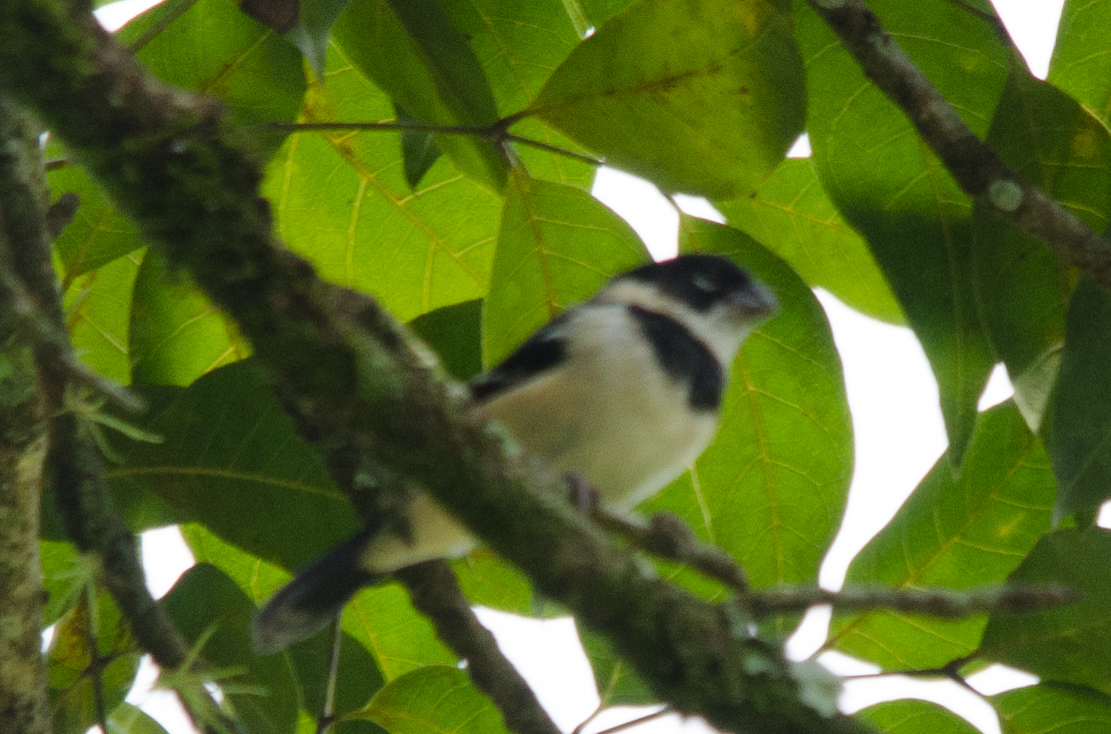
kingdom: Animalia
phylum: Chordata
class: Aves
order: Passeriformes
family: Thraupidae
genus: Sporophila
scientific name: Sporophila morelleti
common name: Morelet's seedeater
